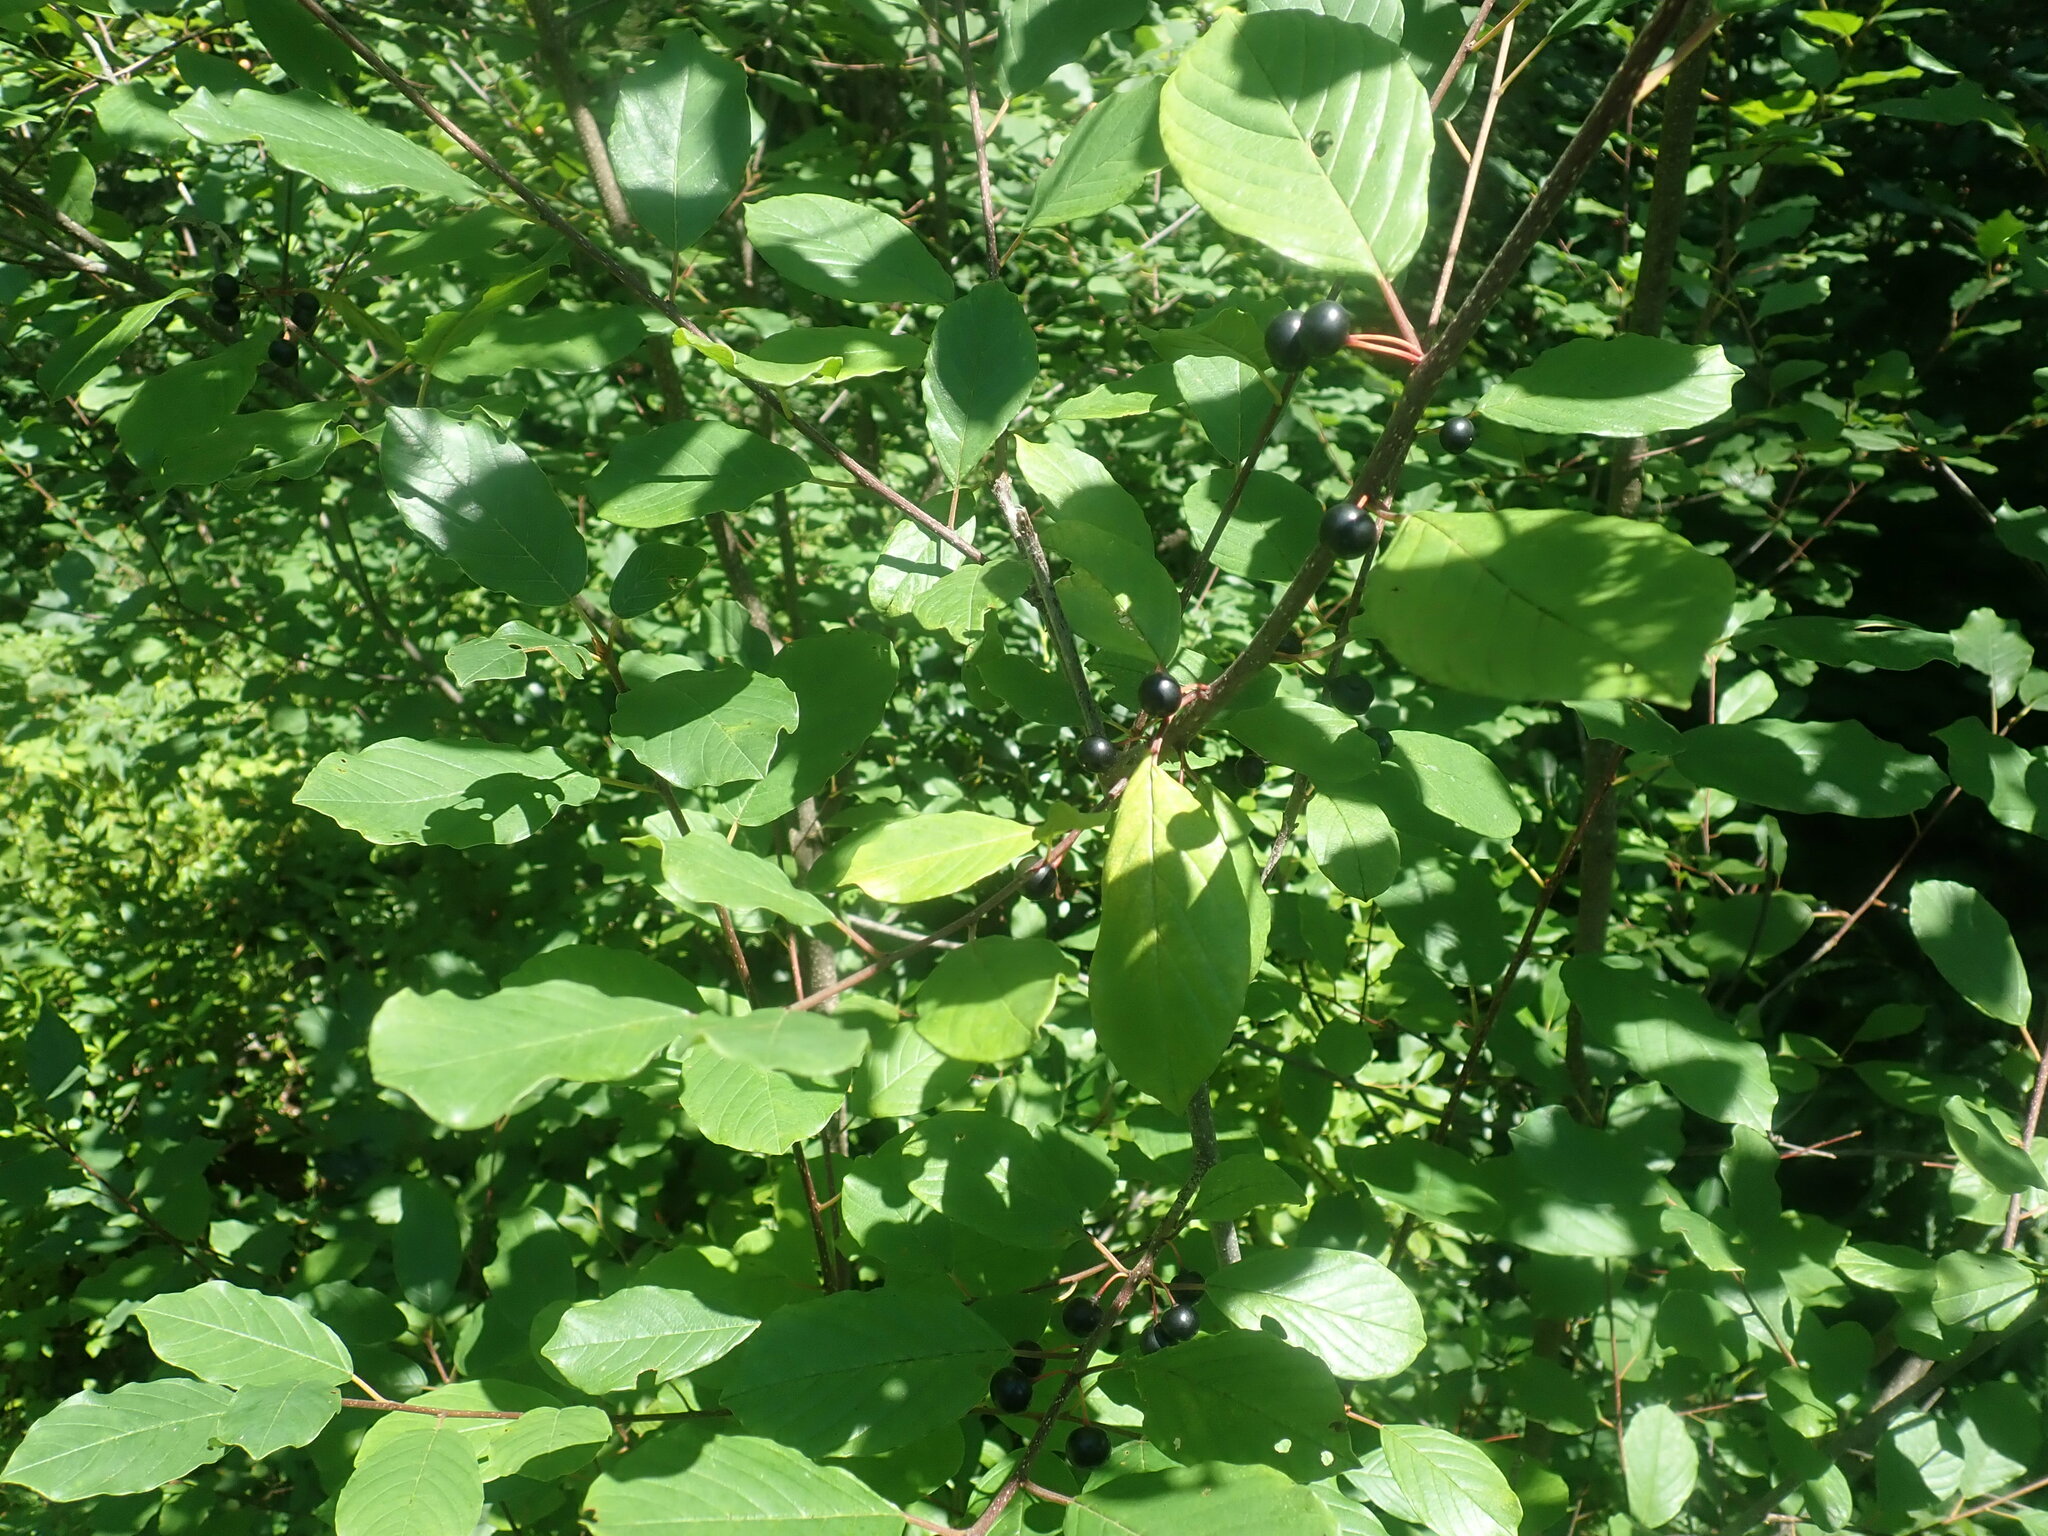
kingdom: Plantae
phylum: Tracheophyta
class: Magnoliopsida
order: Rosales
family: Rhamnaceae
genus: Frangula
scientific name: Frangula alnus
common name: Alder buckthorn
